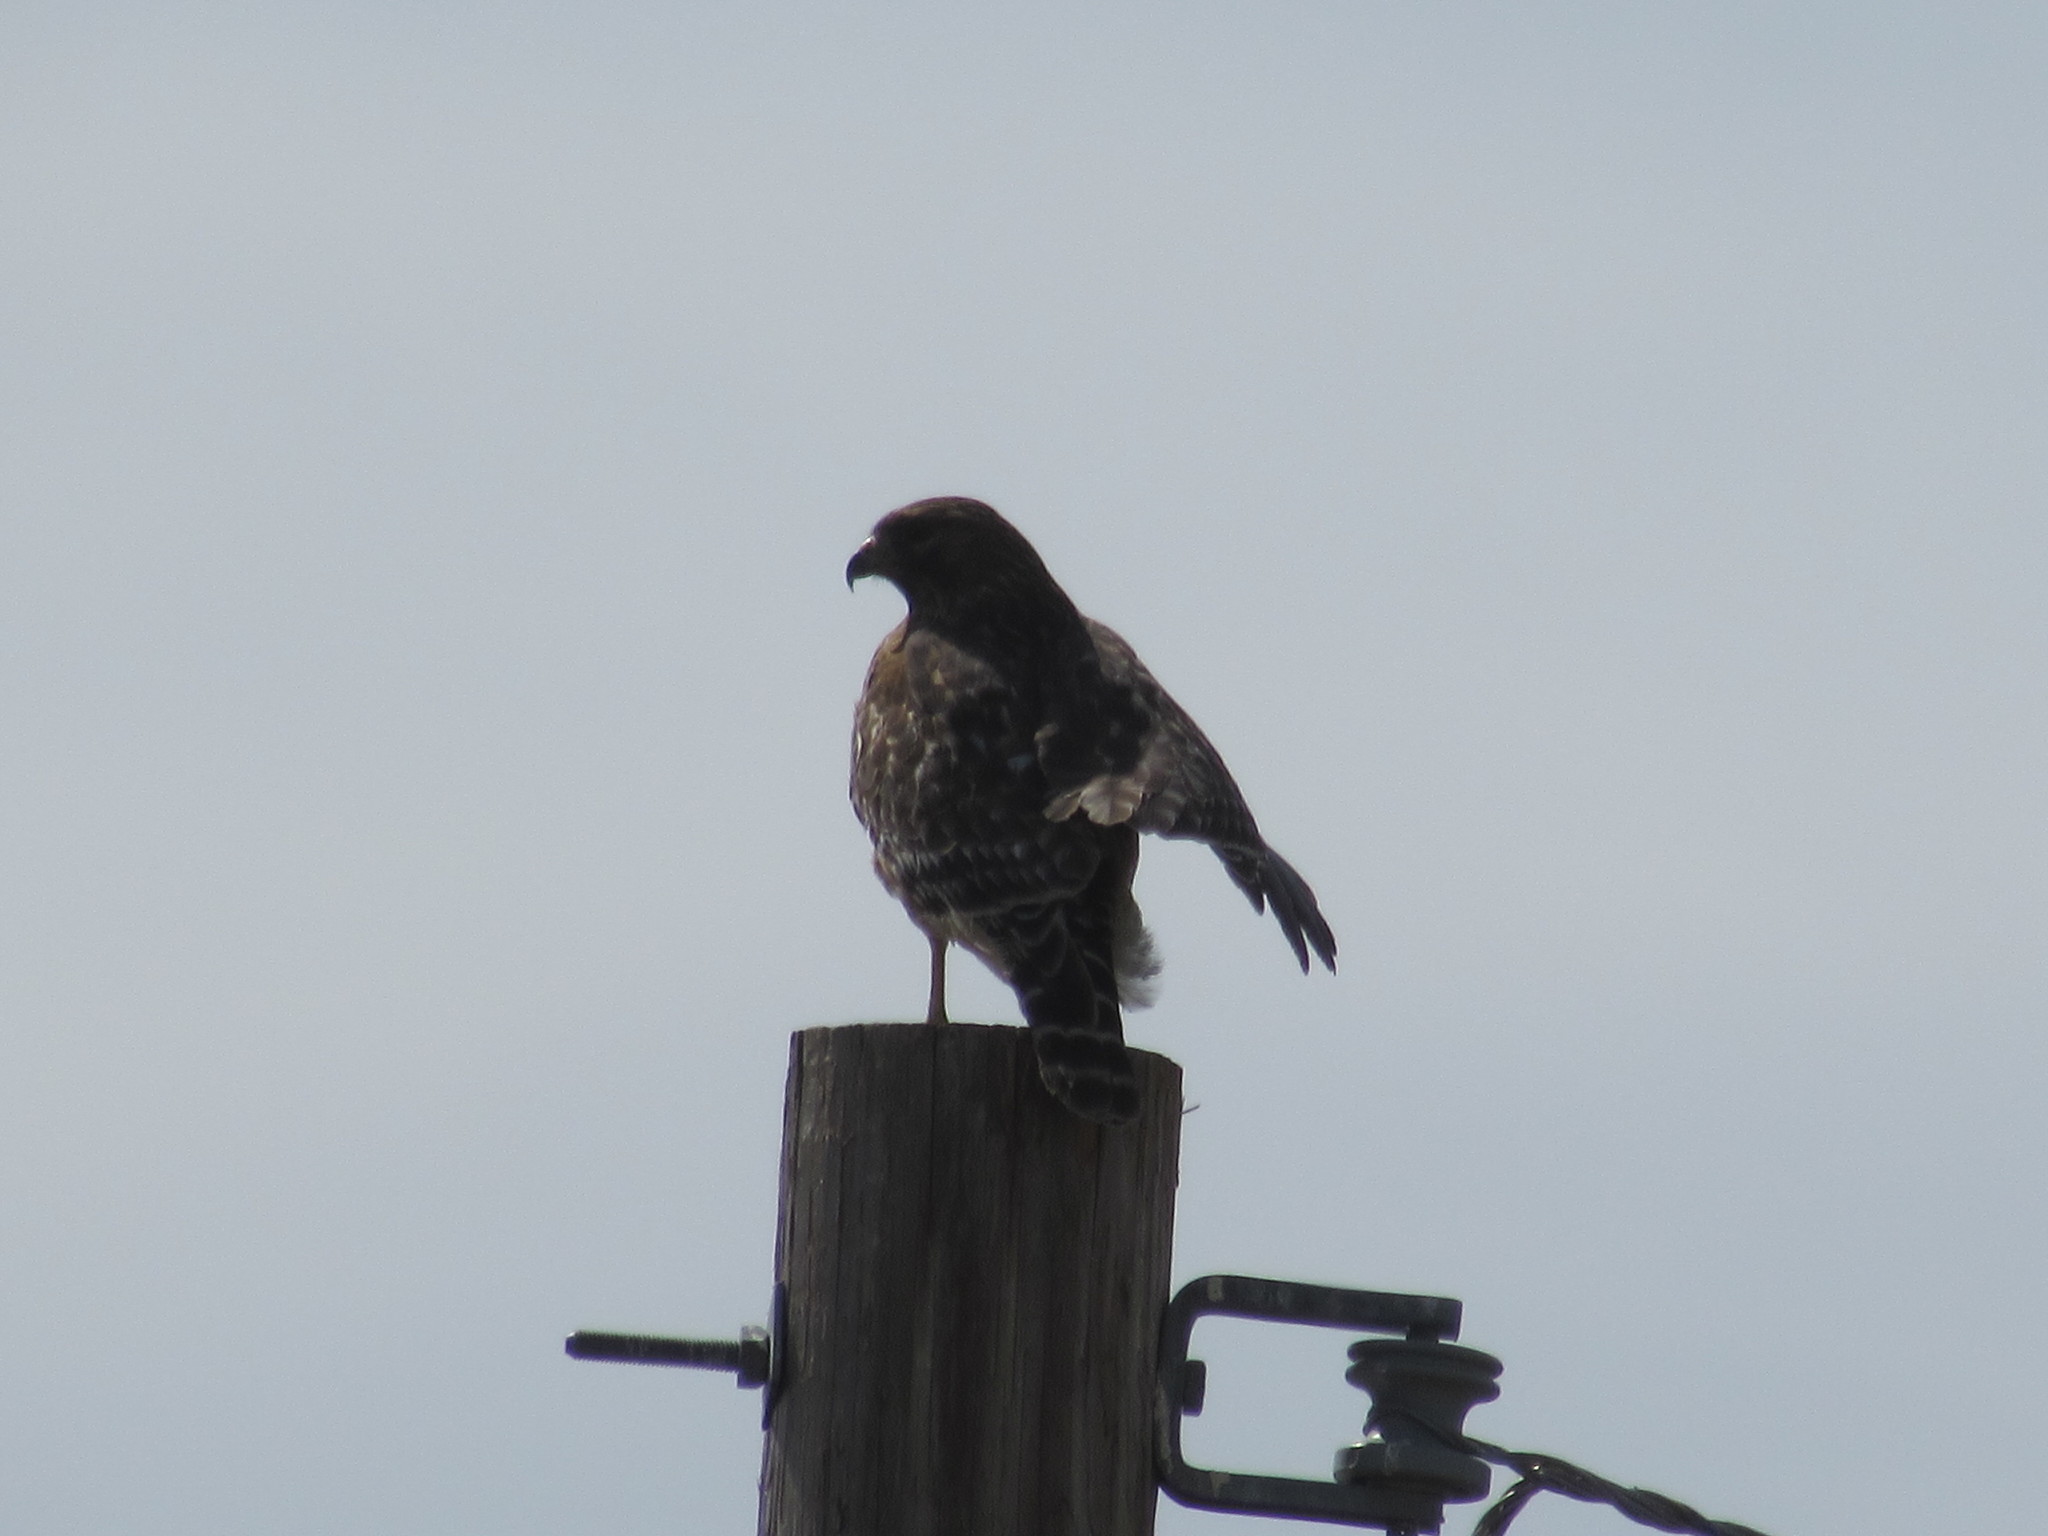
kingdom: Animalia
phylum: Chordata
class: Aves
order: Accipitriformes
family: Accipitridae
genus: Buteo
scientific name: Buteo lineatus
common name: Red-shouldered hawk
